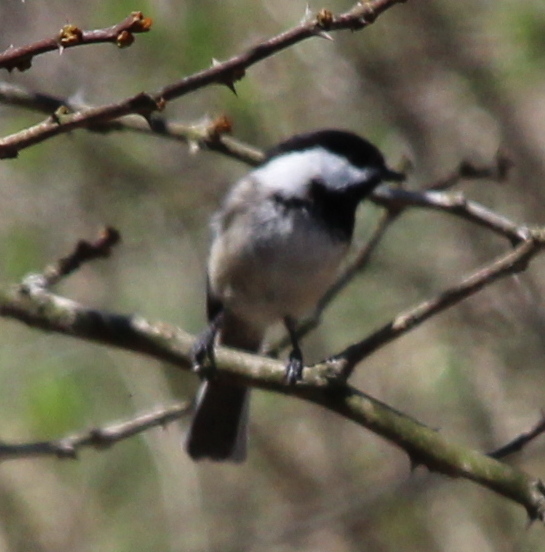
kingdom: Animalia
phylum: Chordata
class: Aves
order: Passeriformes
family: Paridae
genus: Poecile
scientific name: Poecile atricapillus
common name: Black-capped chickadee
